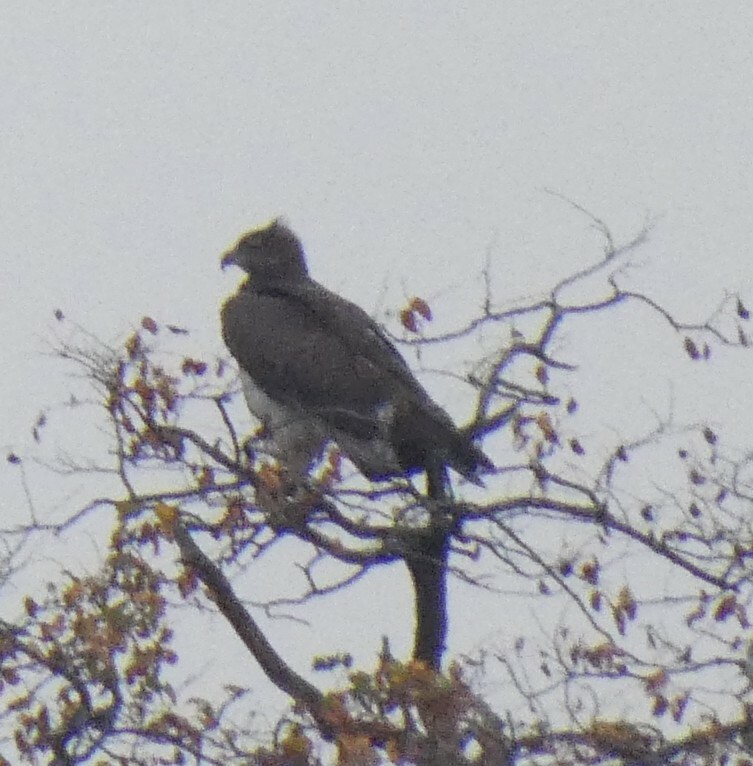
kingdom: Animalia
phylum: Chordata
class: Aves
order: Accipitriformes
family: Accipitridae
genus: Polemaetus
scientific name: Polemaetus bellicosus
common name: Martial eagle
